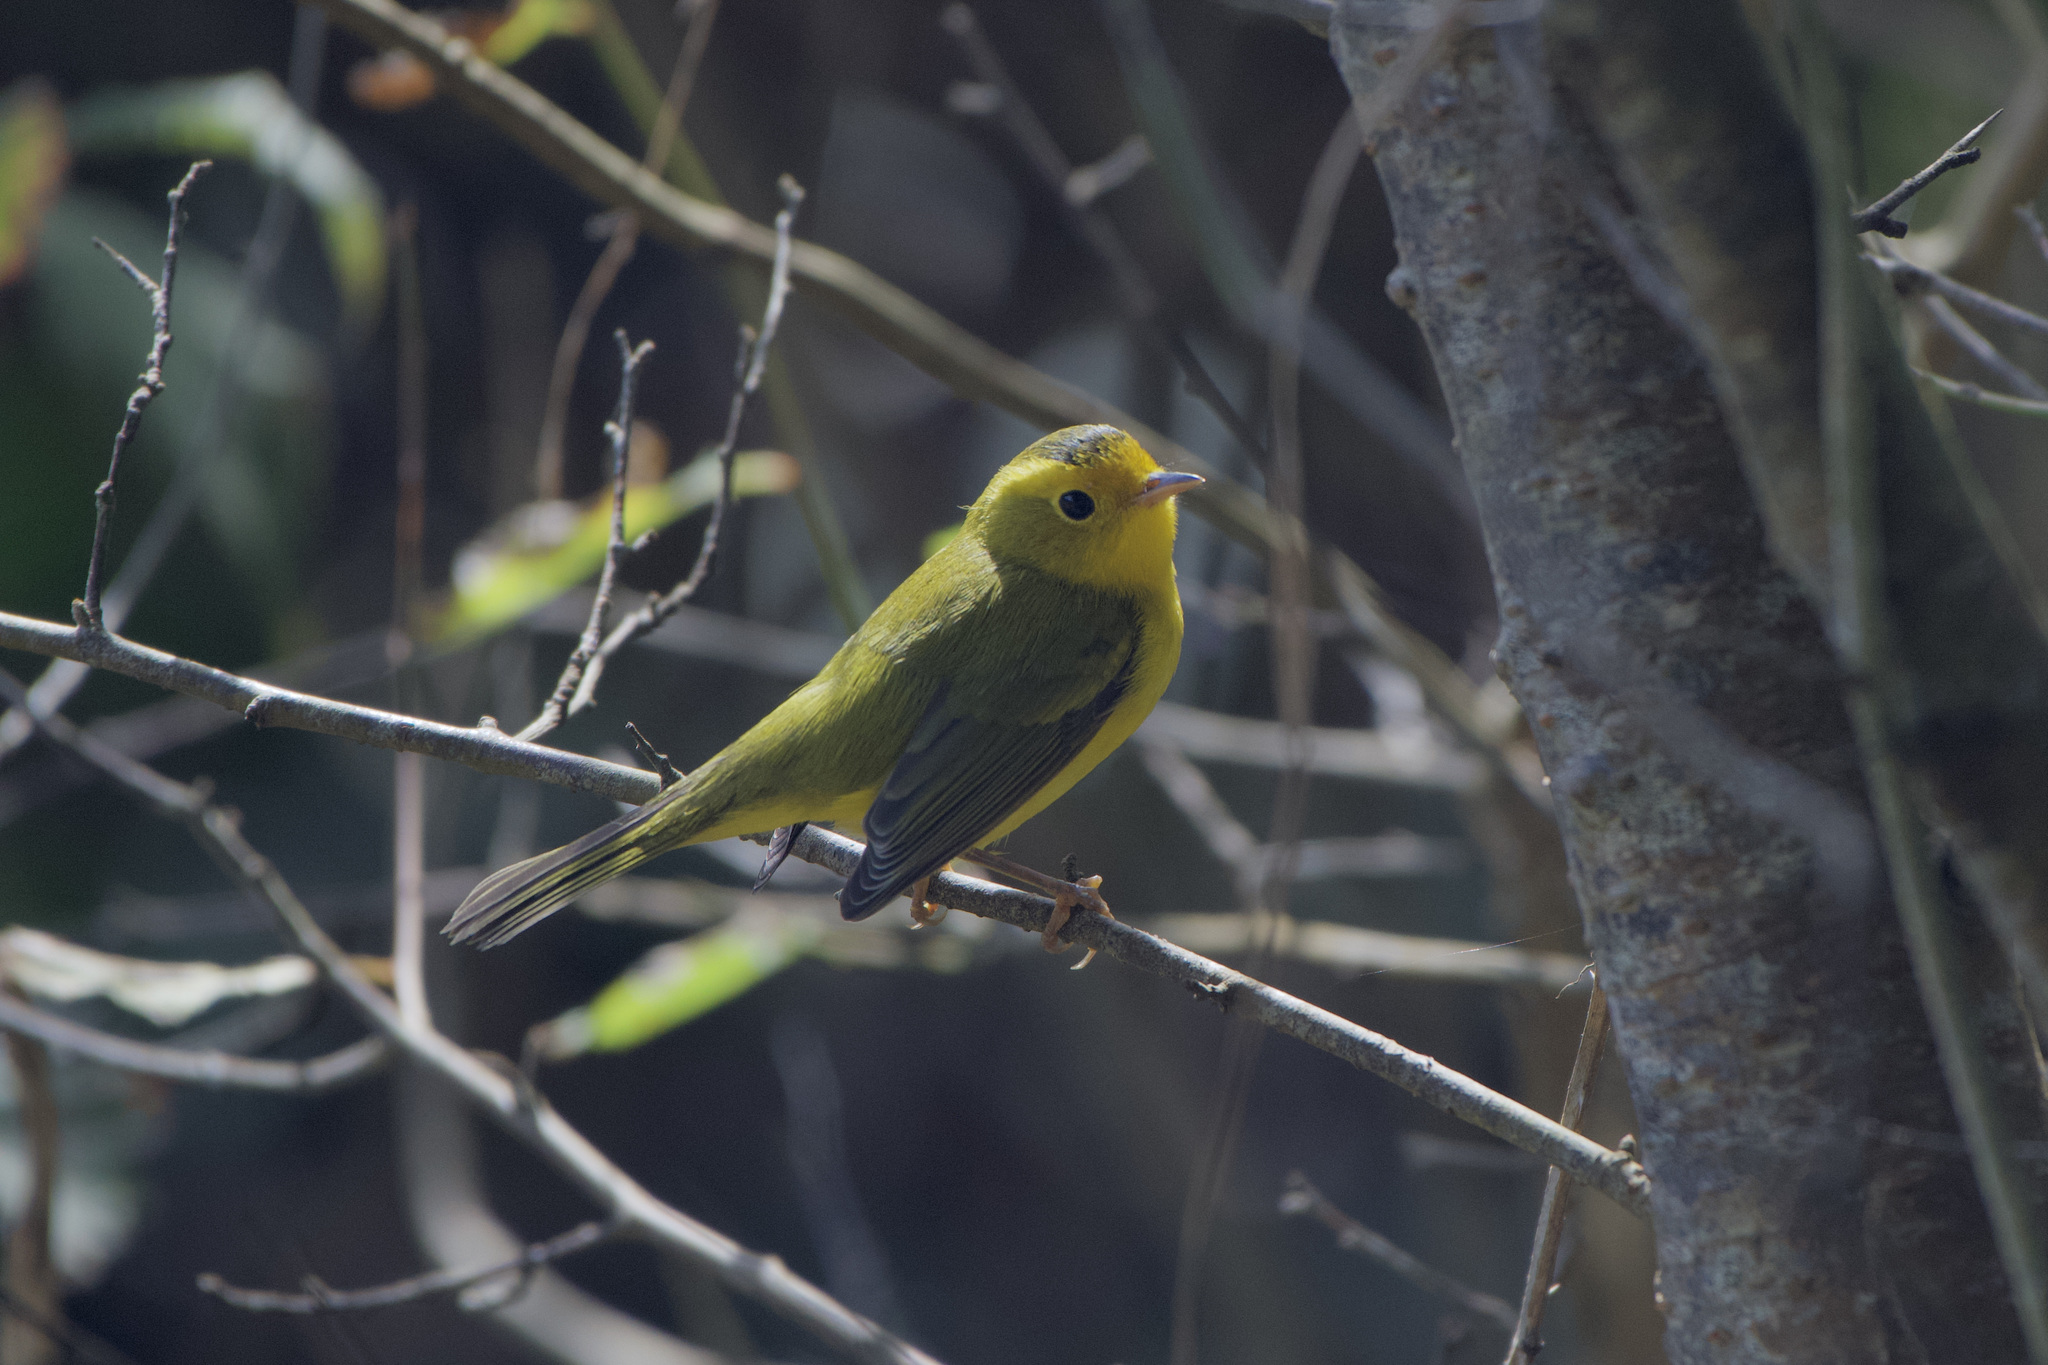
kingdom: Animalia
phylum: Chordata
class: Aves
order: Passeriformes
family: Parulidae
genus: Cardellina
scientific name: Cardellina pusilla
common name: Wilson's warbler
